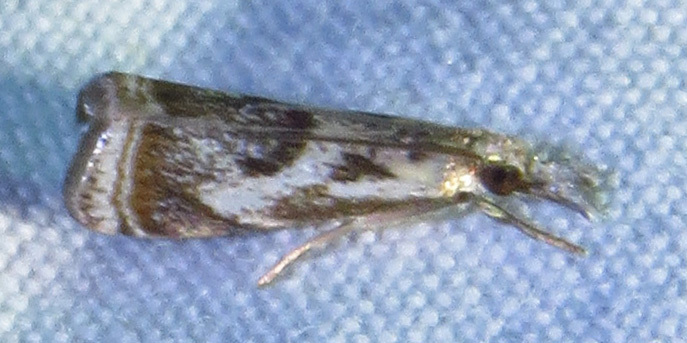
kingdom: Animalia
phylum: Arthropoda
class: Insecta
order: Lepidoptera
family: Crambidae
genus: Microcrambus
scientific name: Microcrambus elegans
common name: Elegant grass-veneer
